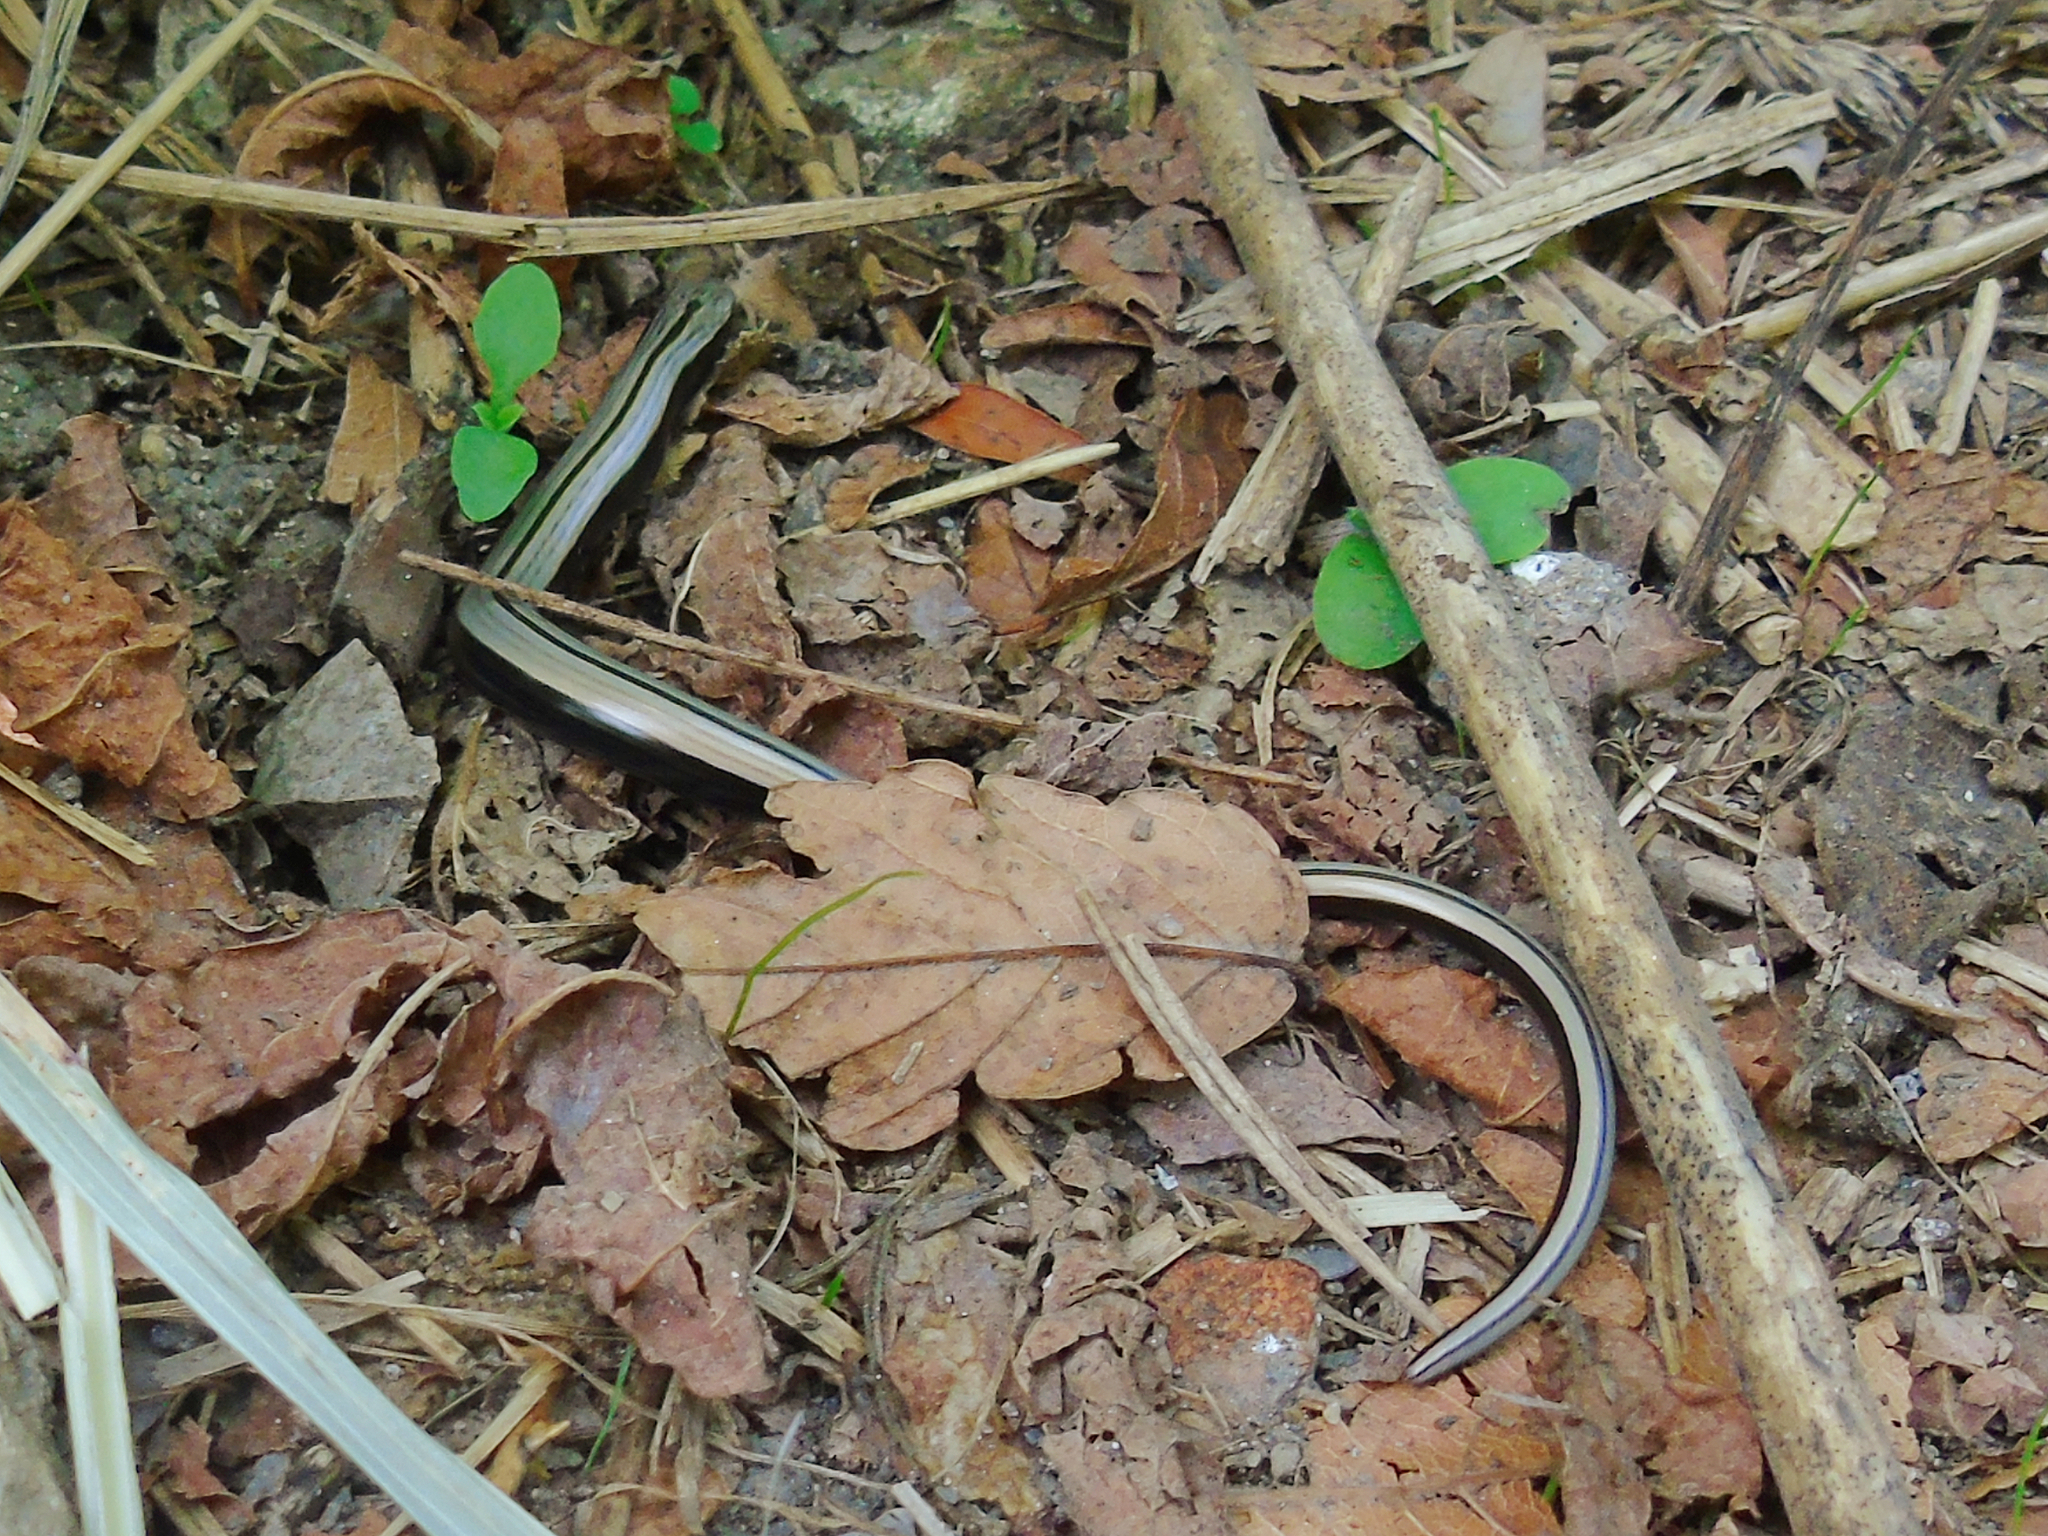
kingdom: Animalia
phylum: Chordata
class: Squamata
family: Anguidae
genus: Anguis
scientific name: Anguis colchica
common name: Slow worm
